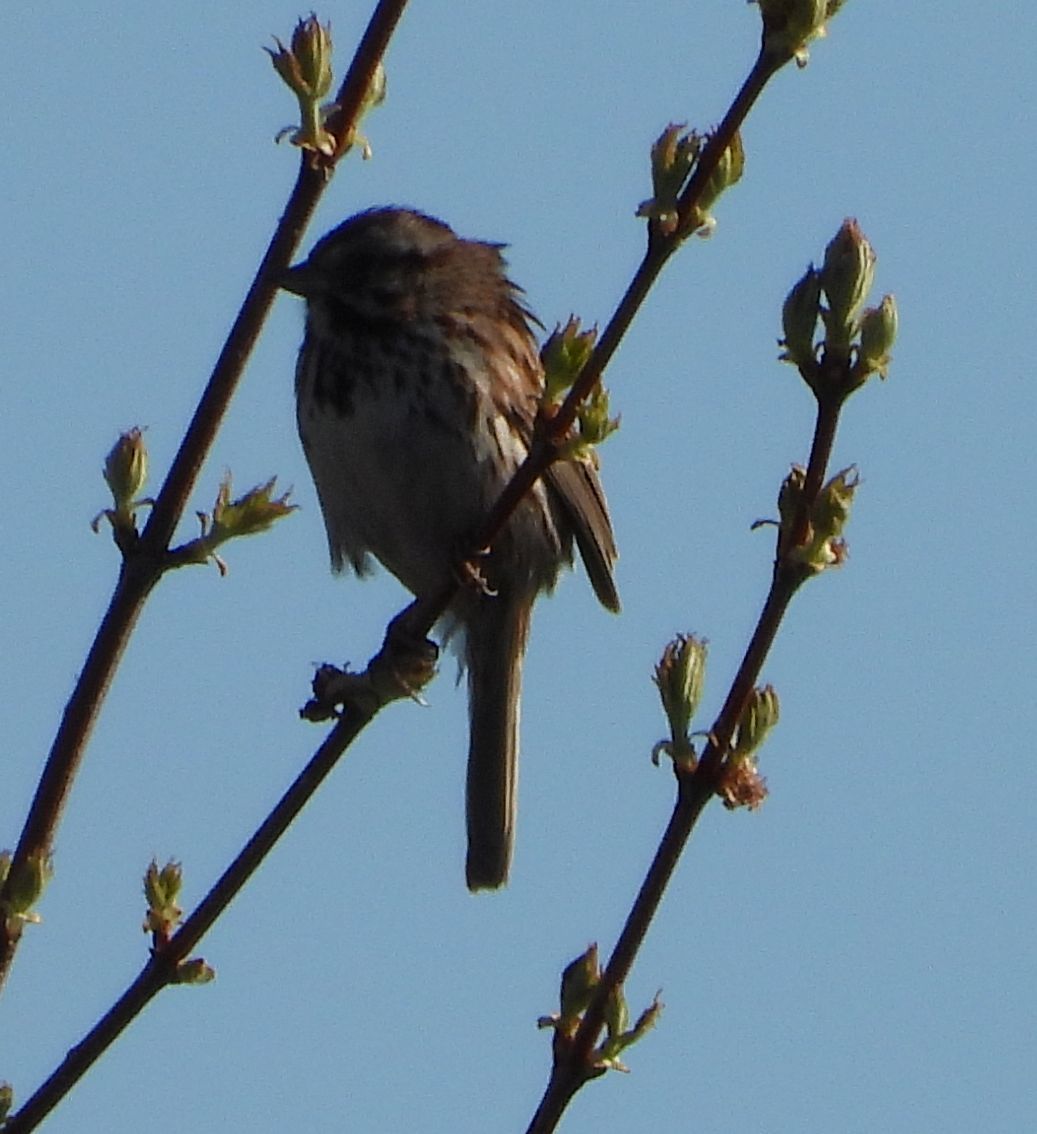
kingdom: Animalia
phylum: Chordata
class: Aves
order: Passeriformes
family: Passerellidae
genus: Melospiza
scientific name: Melospiza melodia
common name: Song sparrow
